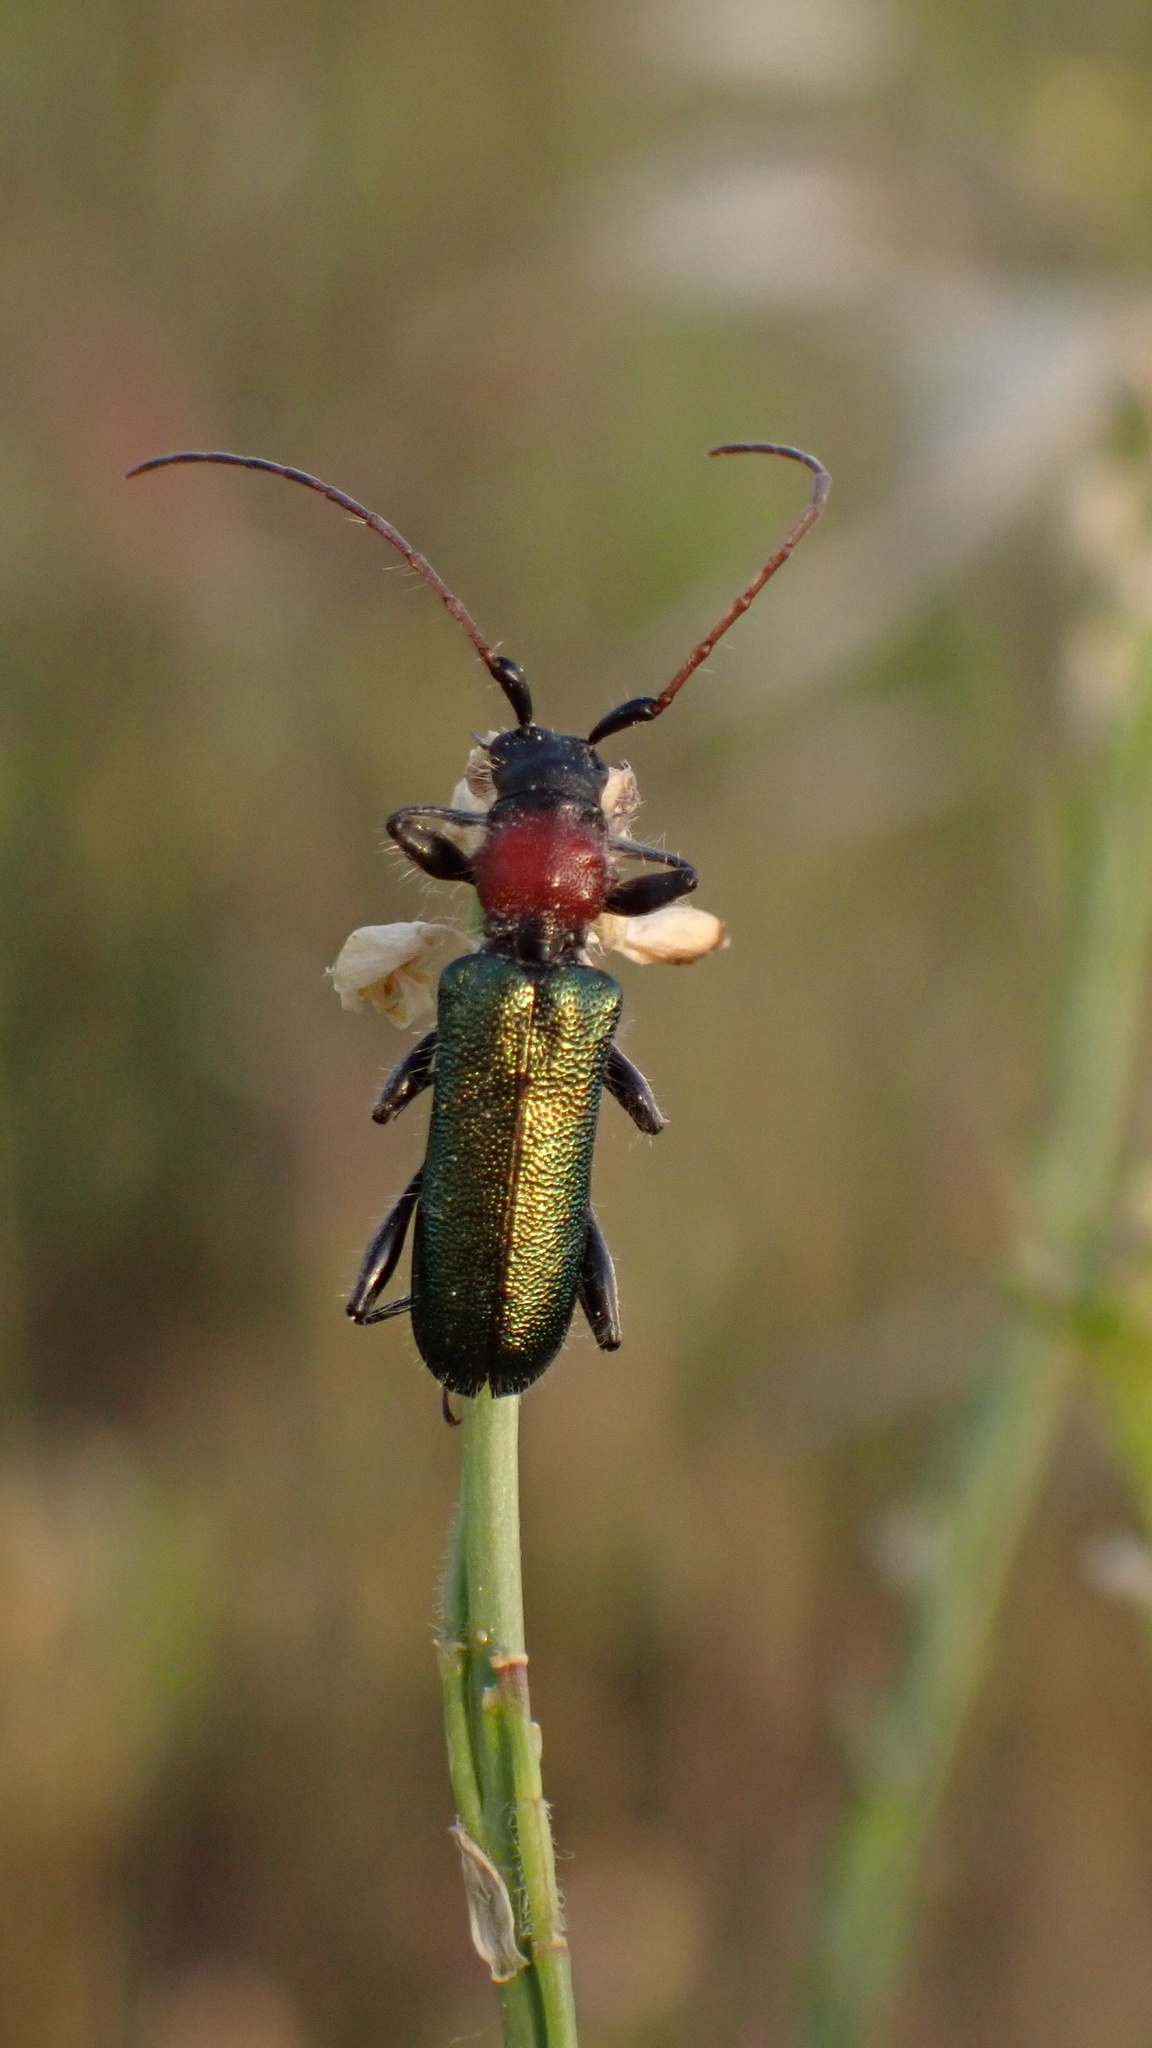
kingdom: Animalia
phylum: Arthropoda
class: Insecta
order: Coleoptera
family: Cerambycidae
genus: Certallum
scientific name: Certallum ebulinum
